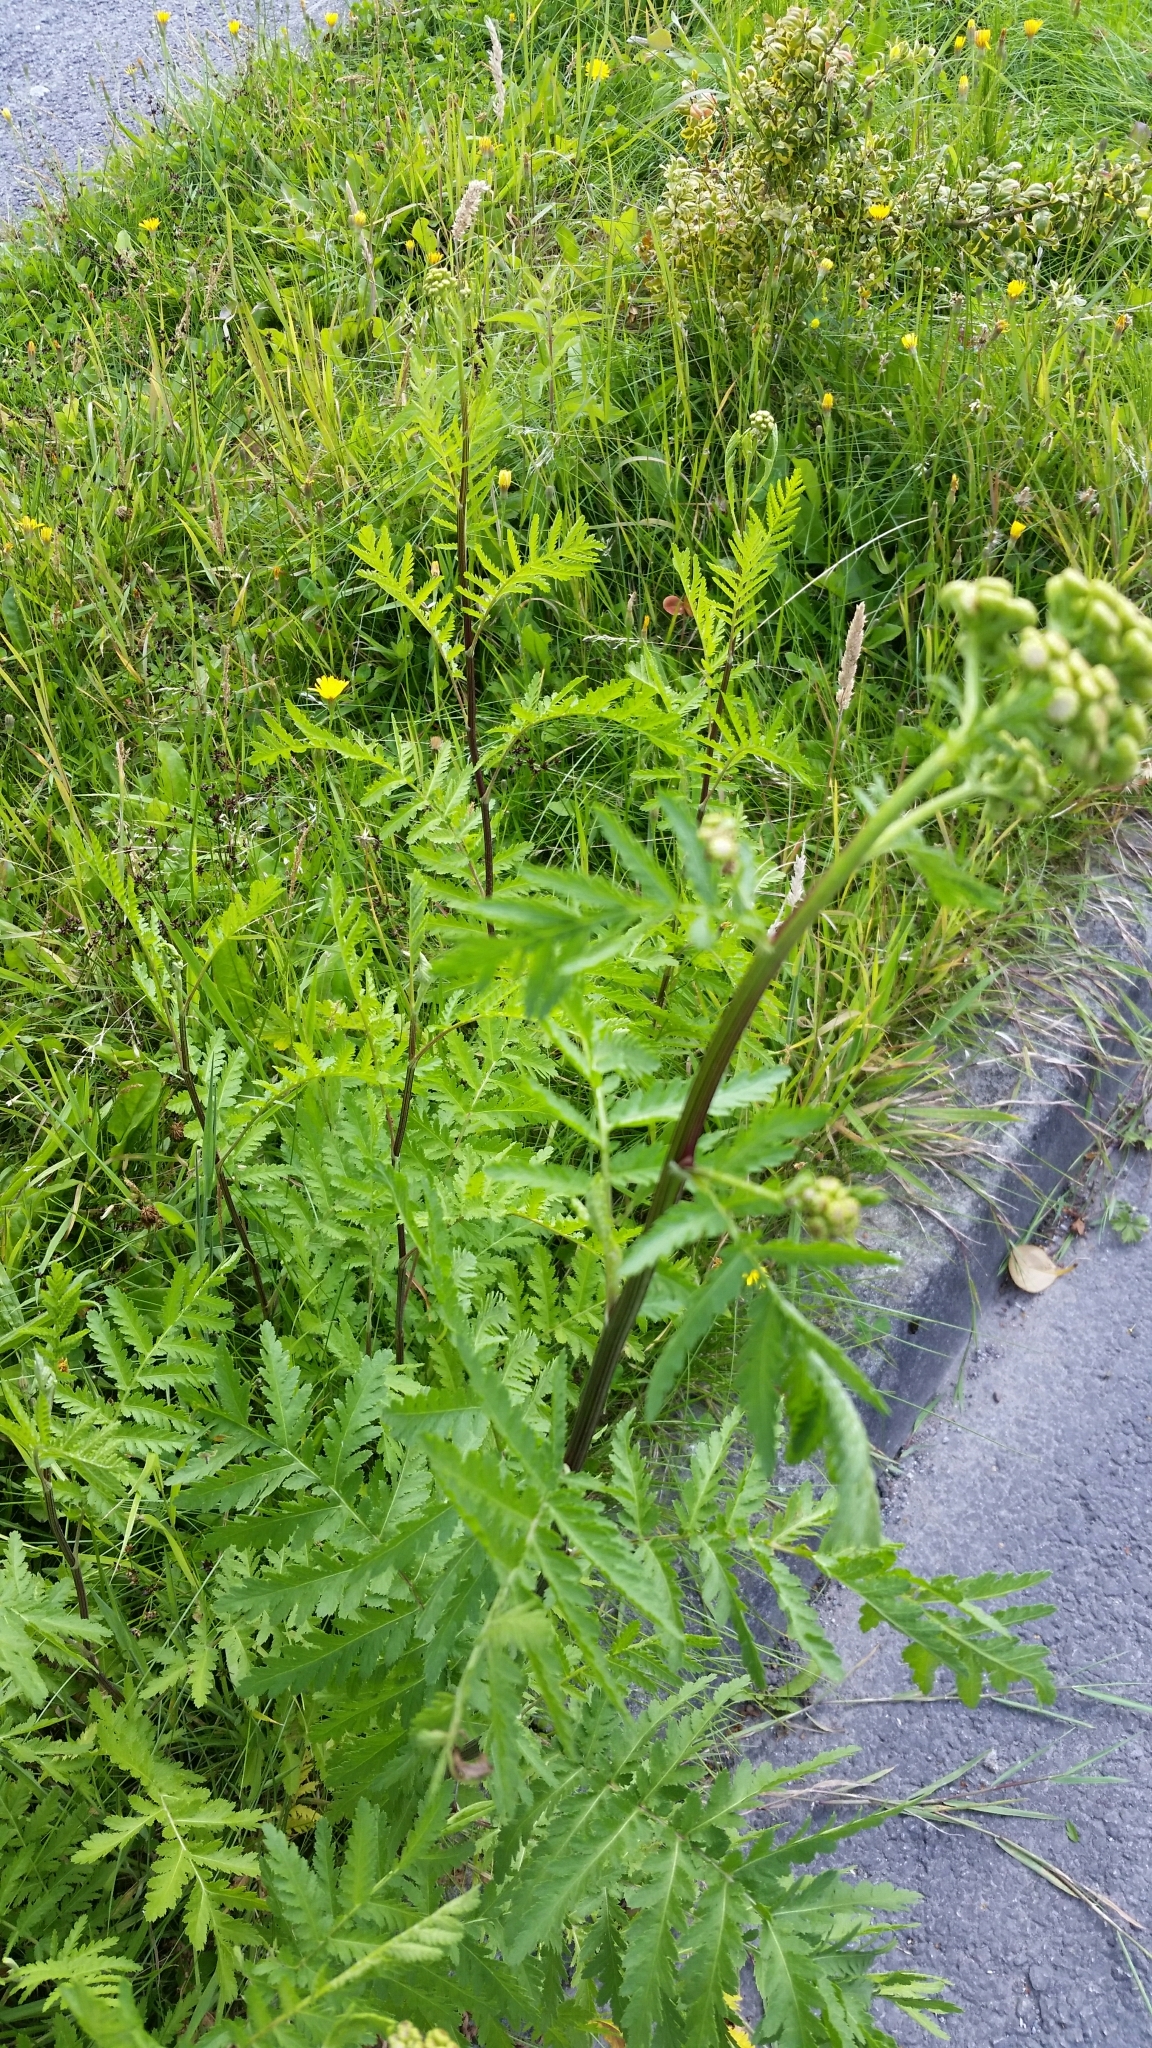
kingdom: Plantae
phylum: Tracheophyta
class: Magnoliopsida
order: Asterales
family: Asteraceae
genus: Tanacetum
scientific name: Tanacetum vulgare
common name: Common tansy
